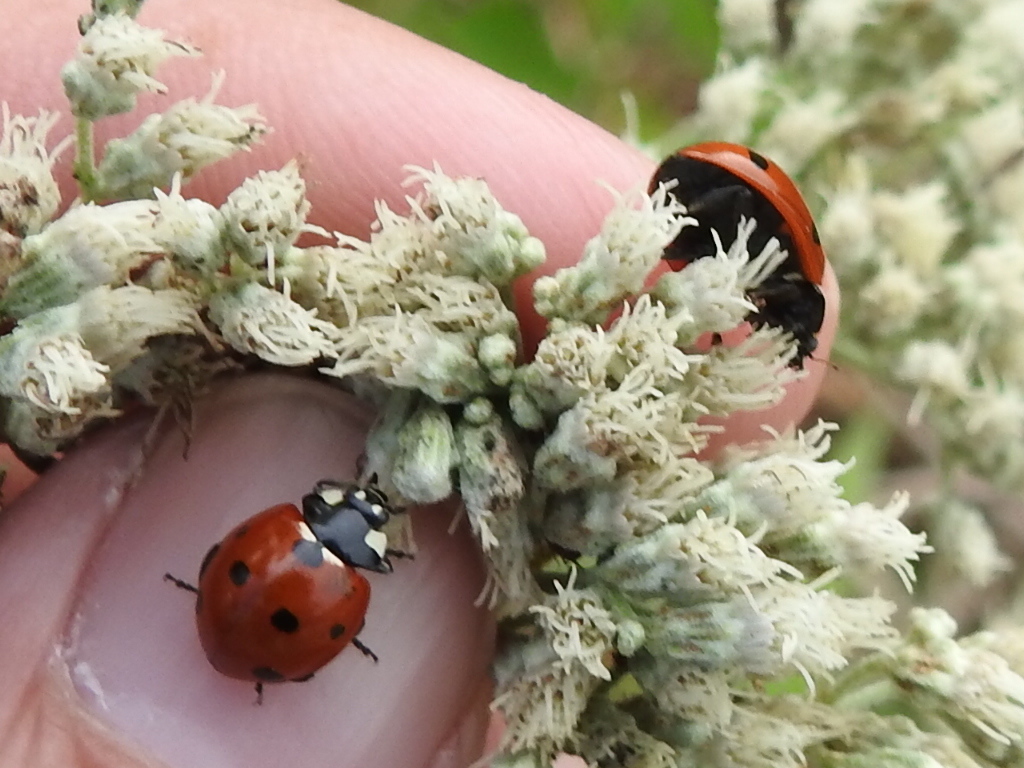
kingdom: Animalia
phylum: Arthropoda
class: Insecta
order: Coleoptera
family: Coccinellidae
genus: Coccinella
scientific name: Coccinella septempunctata
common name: Sevenspotted lady beetle
